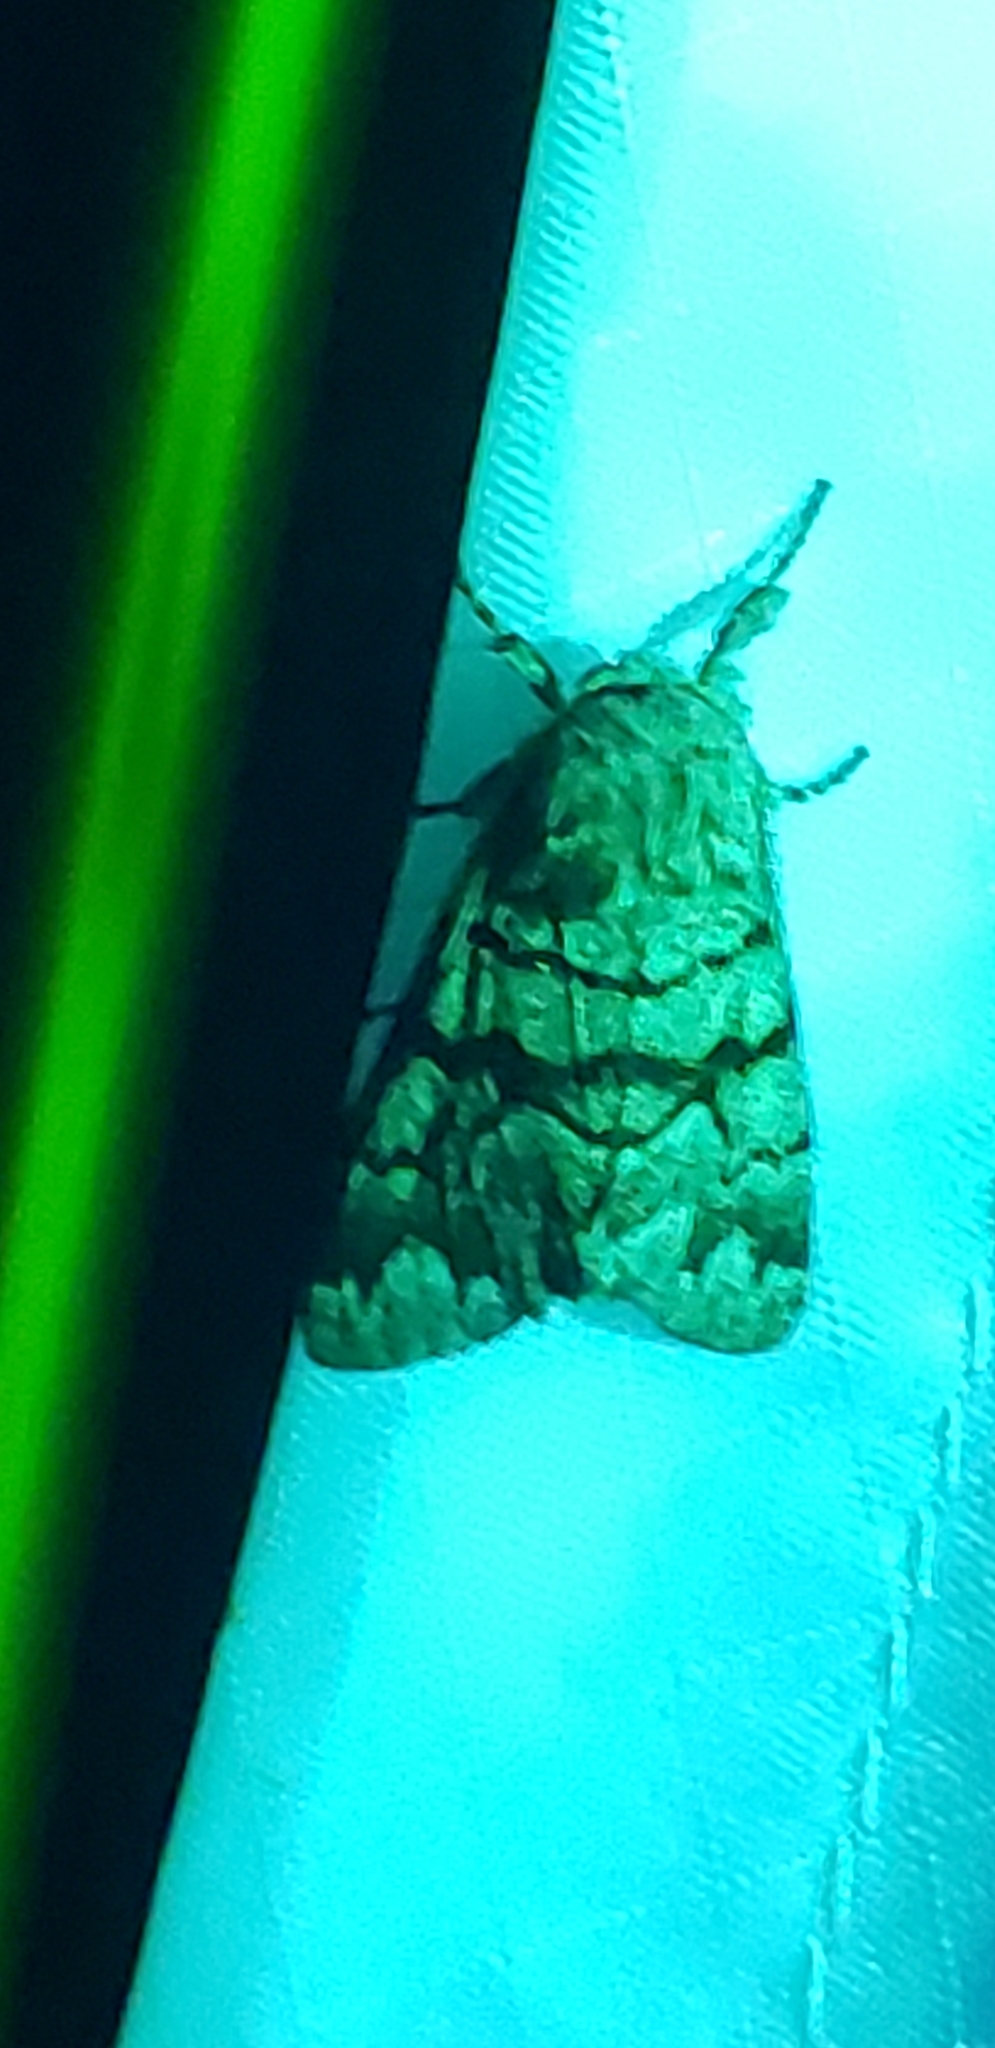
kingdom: Animalia
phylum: Arthropoda
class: Insecta
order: Lepidoptera
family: Noctuidae
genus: Panthea
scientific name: Panthea furcilla
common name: Eastern panthea moth
